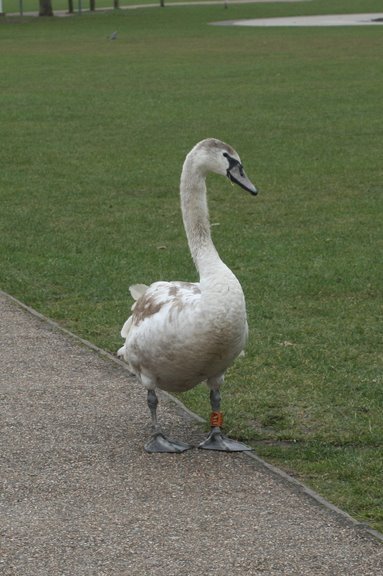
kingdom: Animalia
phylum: Chordata
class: Aves
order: Anseriformes
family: Anatidae
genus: Cygnus
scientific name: Cygnus olor
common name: Mute swan
